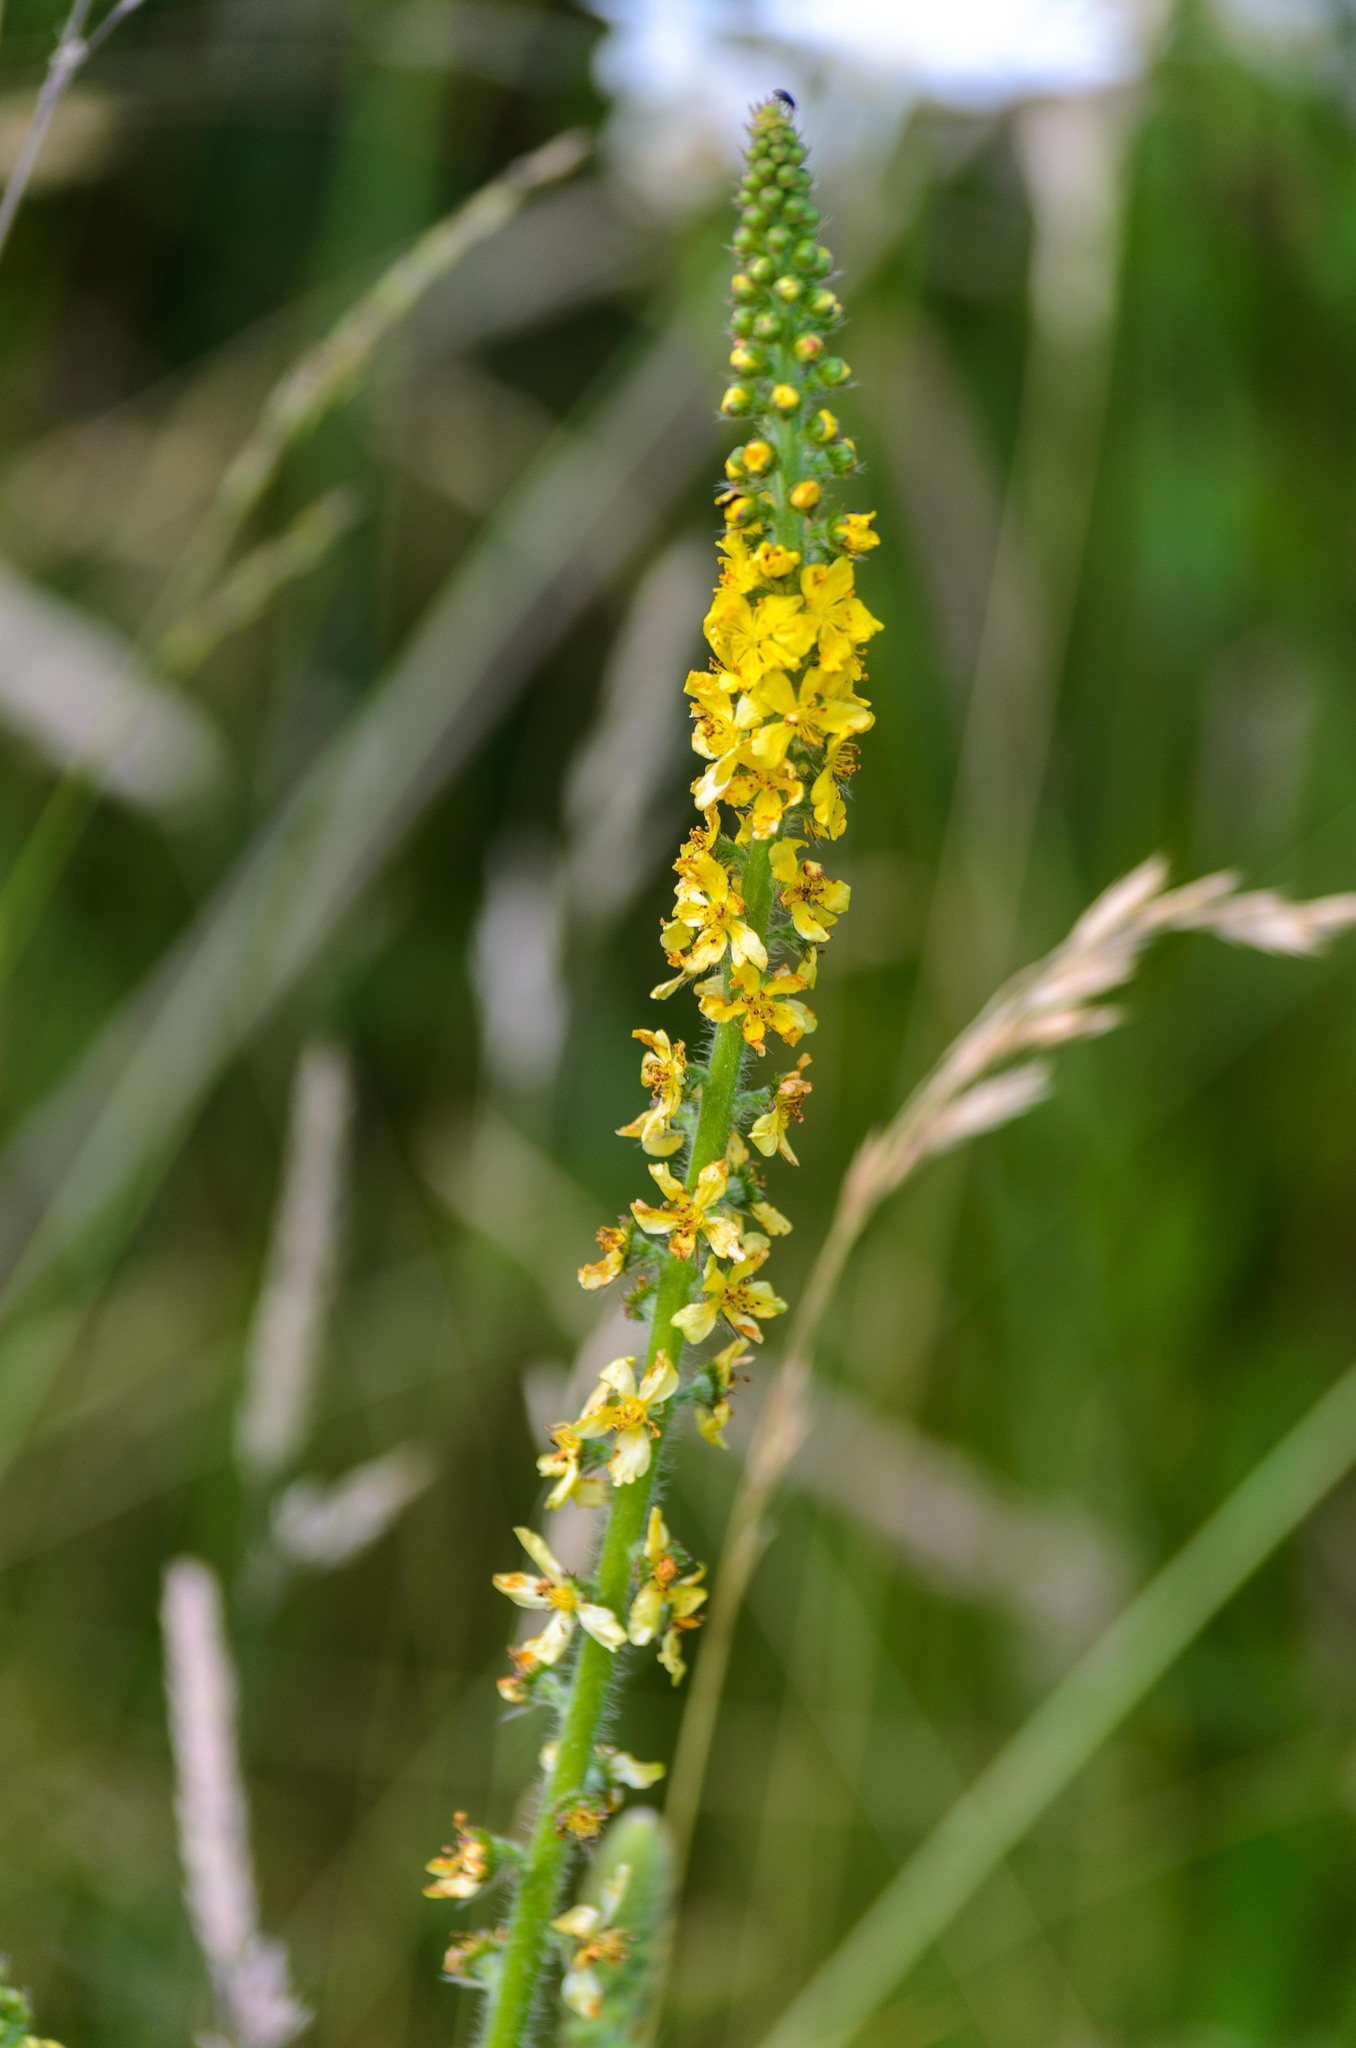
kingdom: Plantae
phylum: Tracheophyta
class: Magnoliopsida
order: Rosales
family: Rosaceae
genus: Agrimonia
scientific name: Agrimonia eupatoria
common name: Agrimony
